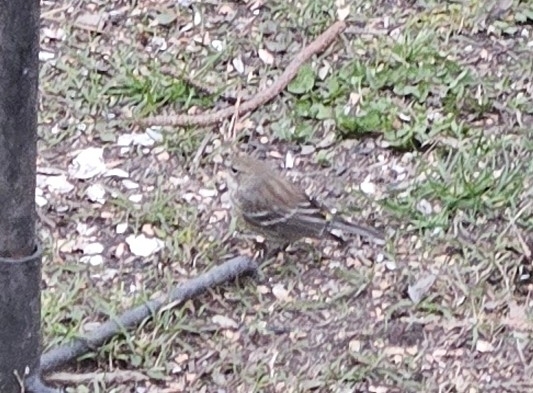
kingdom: Animalia
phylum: Chordata
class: Aves
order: Passeriformes
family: Parulidae
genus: Setophaga
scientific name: Setophaga coronata
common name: Myrtle warbler
